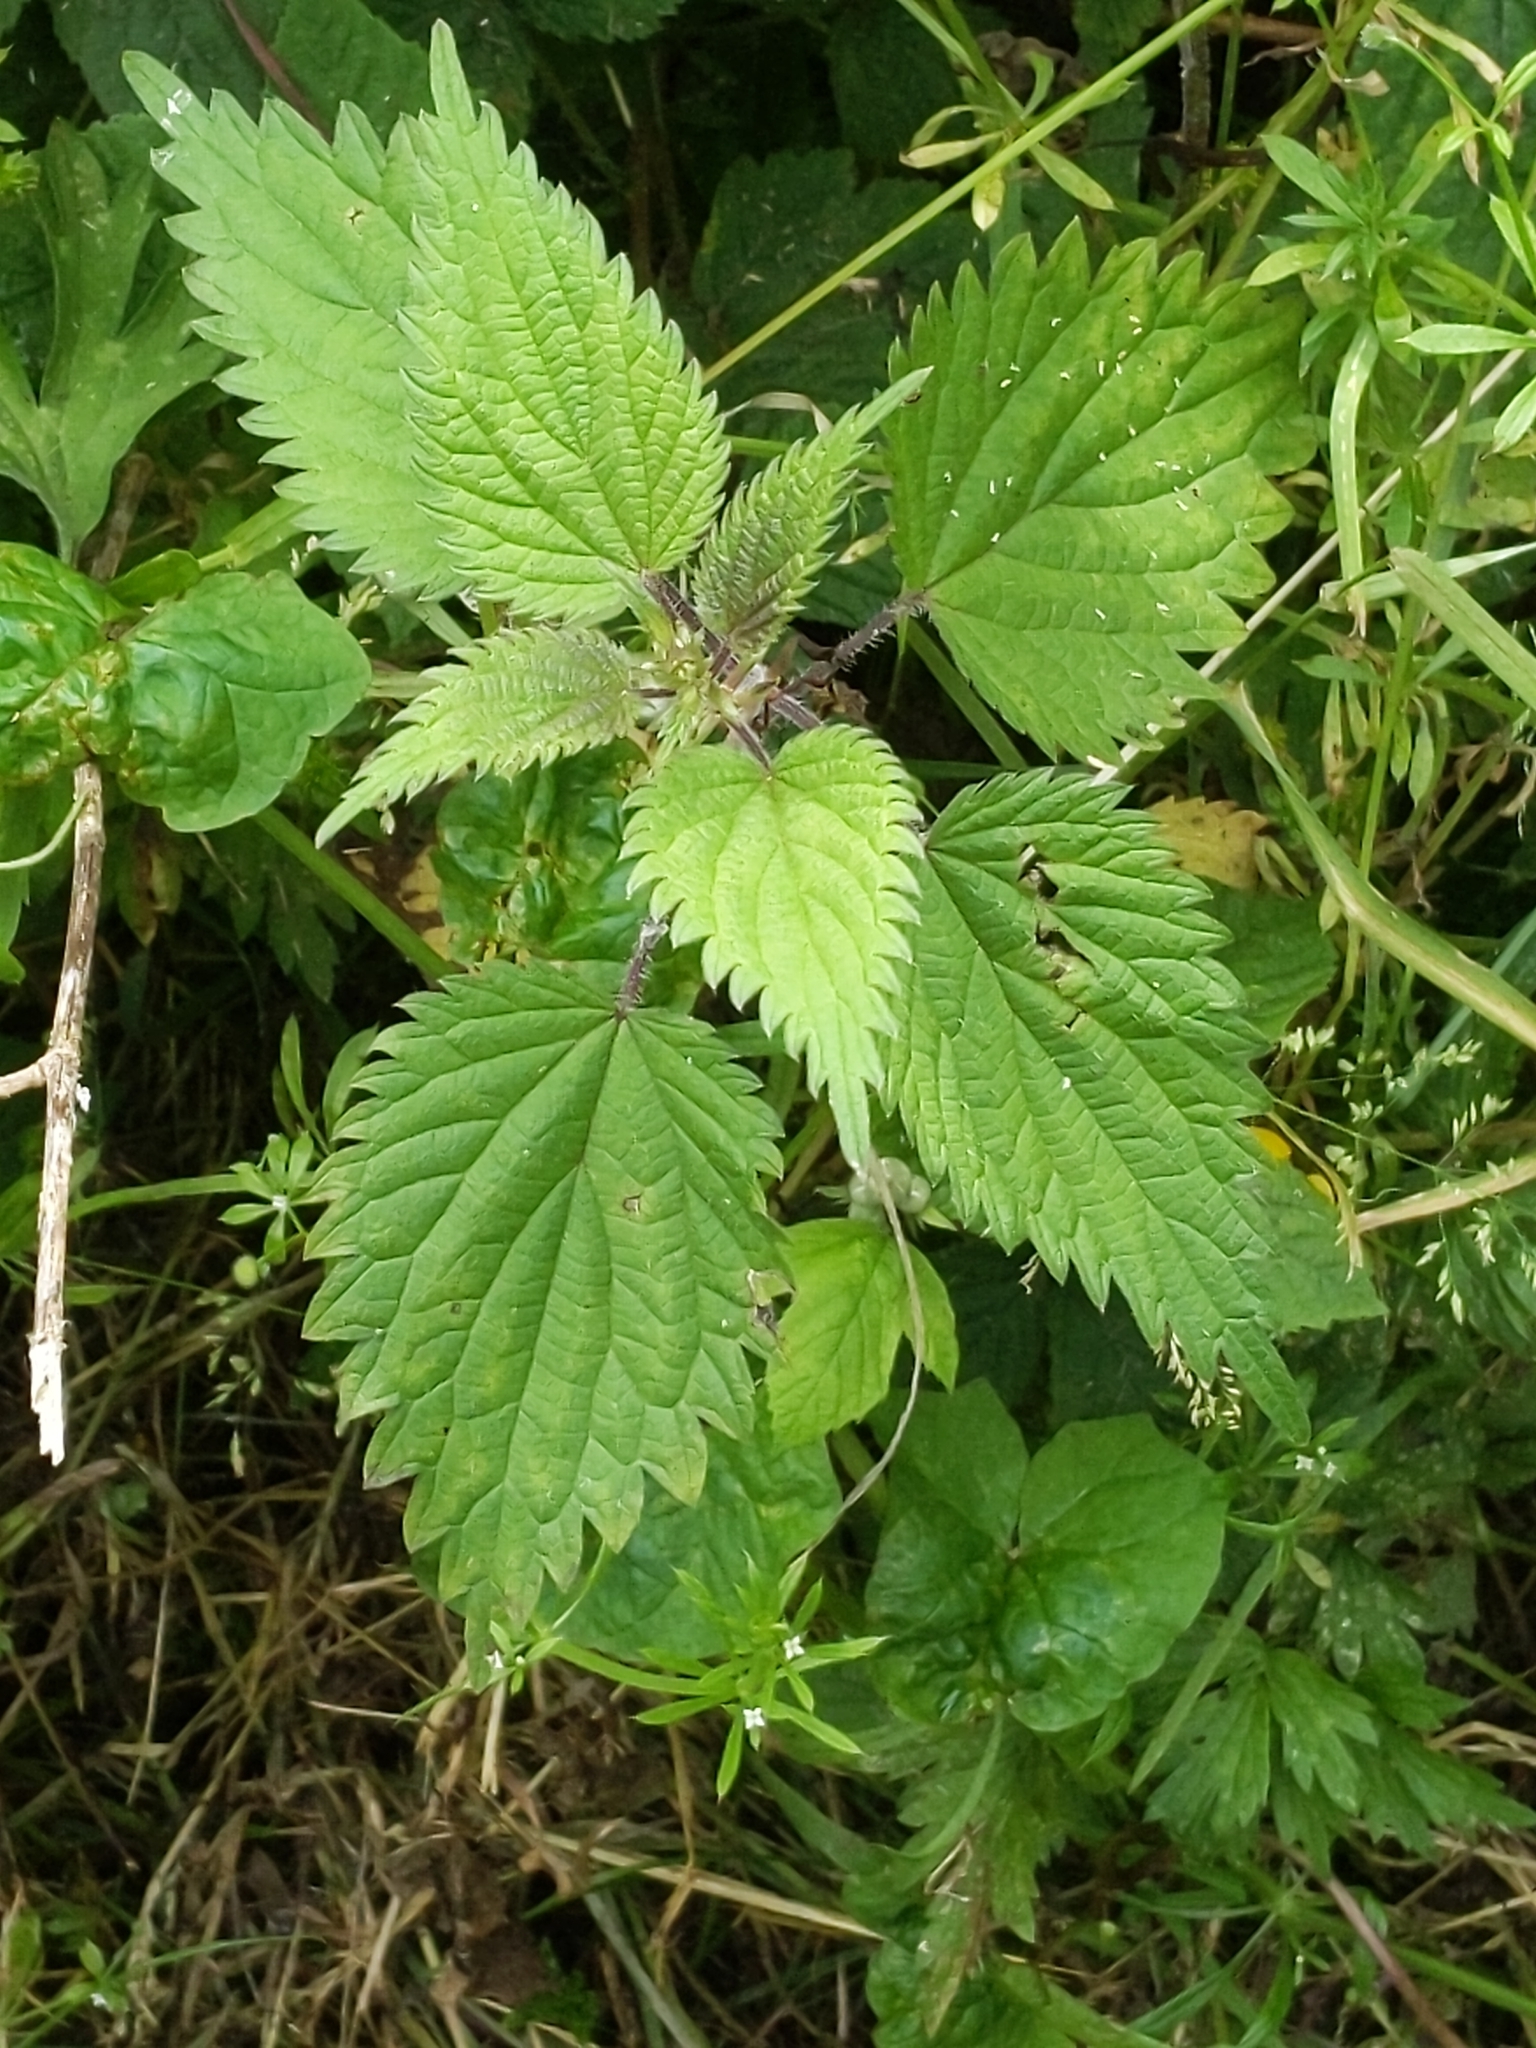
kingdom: Plantae
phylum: Tracheophyta
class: Magnoliopsida
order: Rosales
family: Urticaceae
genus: Urtica
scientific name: Urtica dioica
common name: Common nettle
